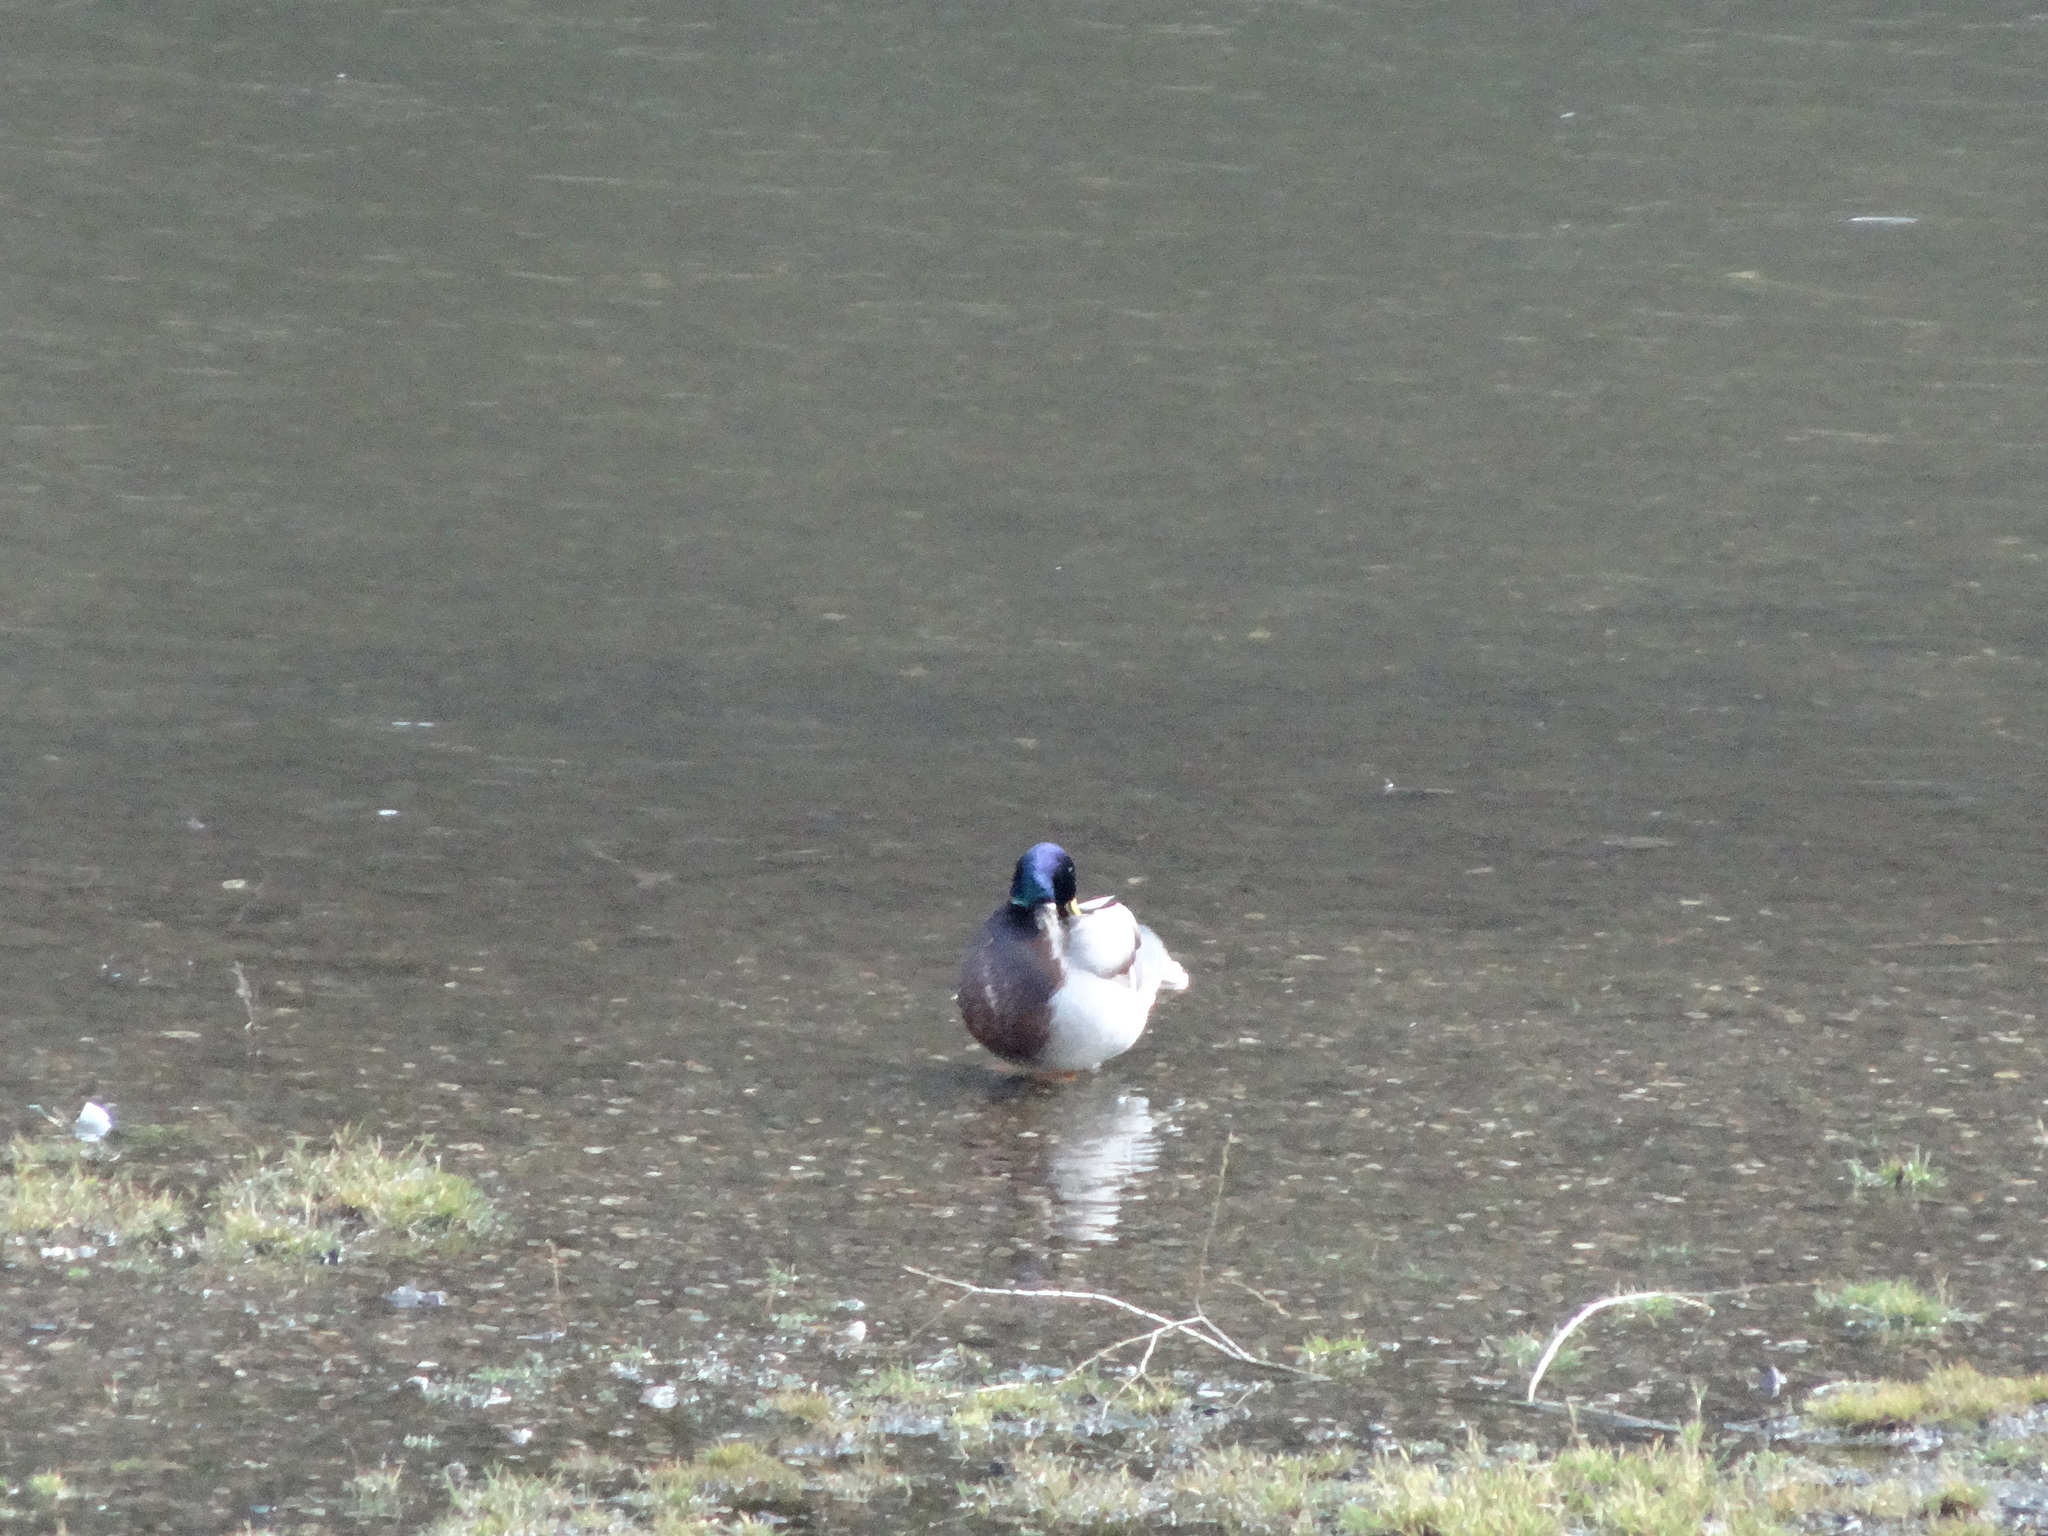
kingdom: Animalia
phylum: Chordata
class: Aves
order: Anseriformes
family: Anatidae
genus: Anas
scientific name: Anas platyrhynchos
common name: Mallard
